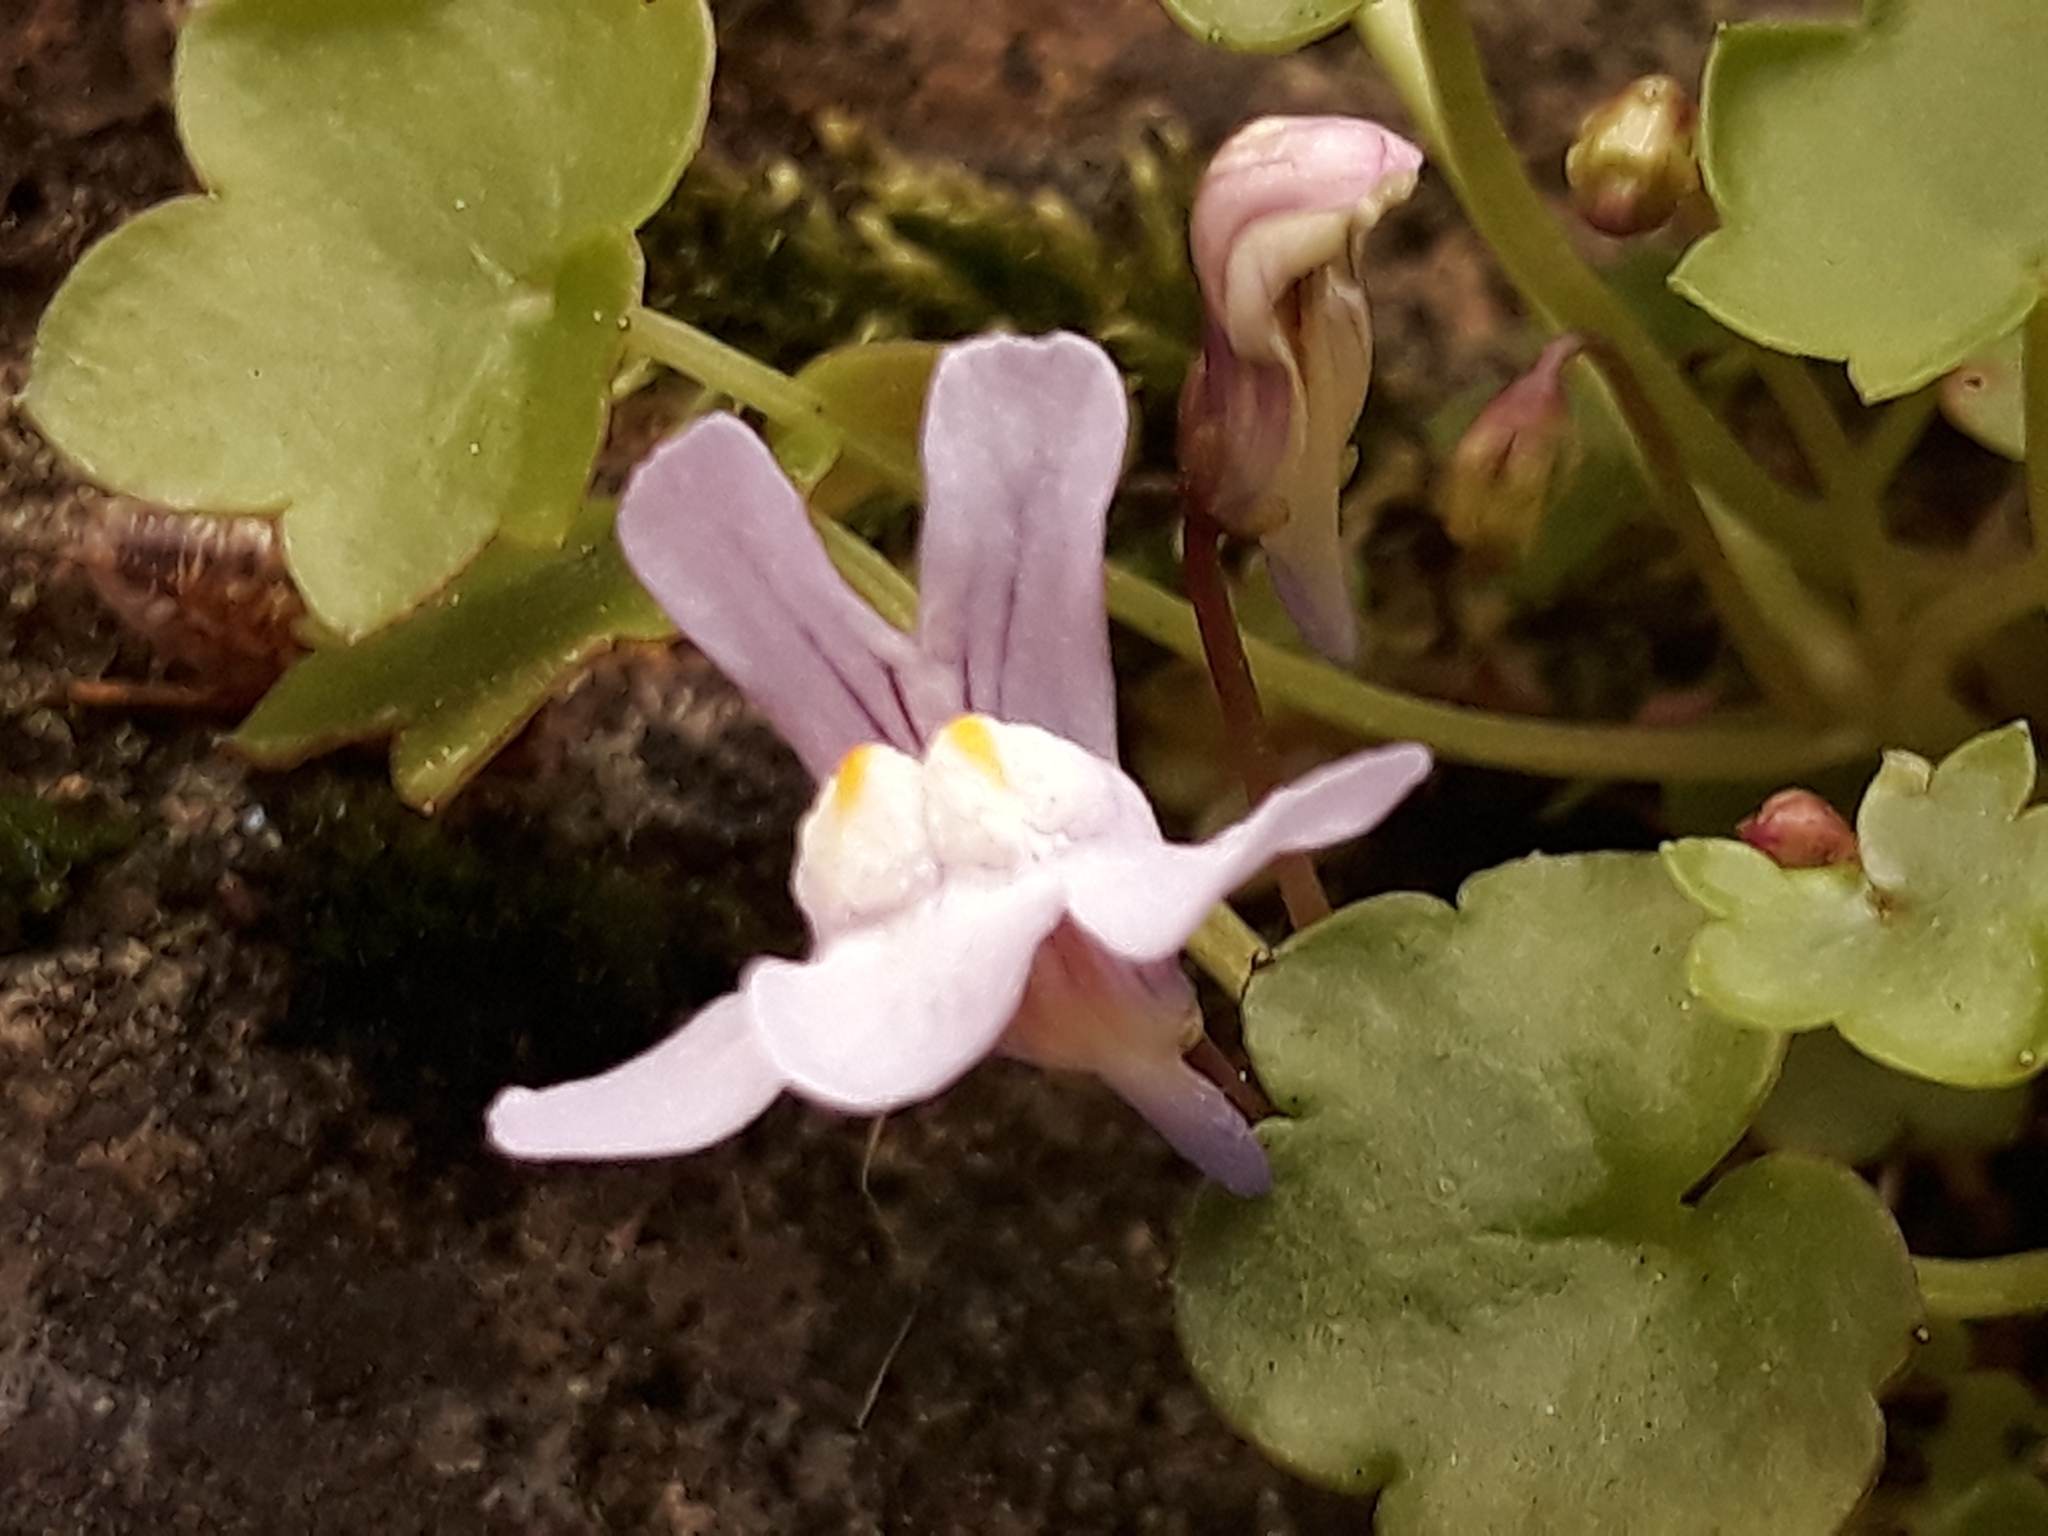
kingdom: Plantae
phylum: Tracheophyta
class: Magnoliopsida
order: Lamiales
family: Plantaginaceae
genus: Cymbalaria
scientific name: Cymbalaria muralis
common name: Ivy-leaved toadflax
